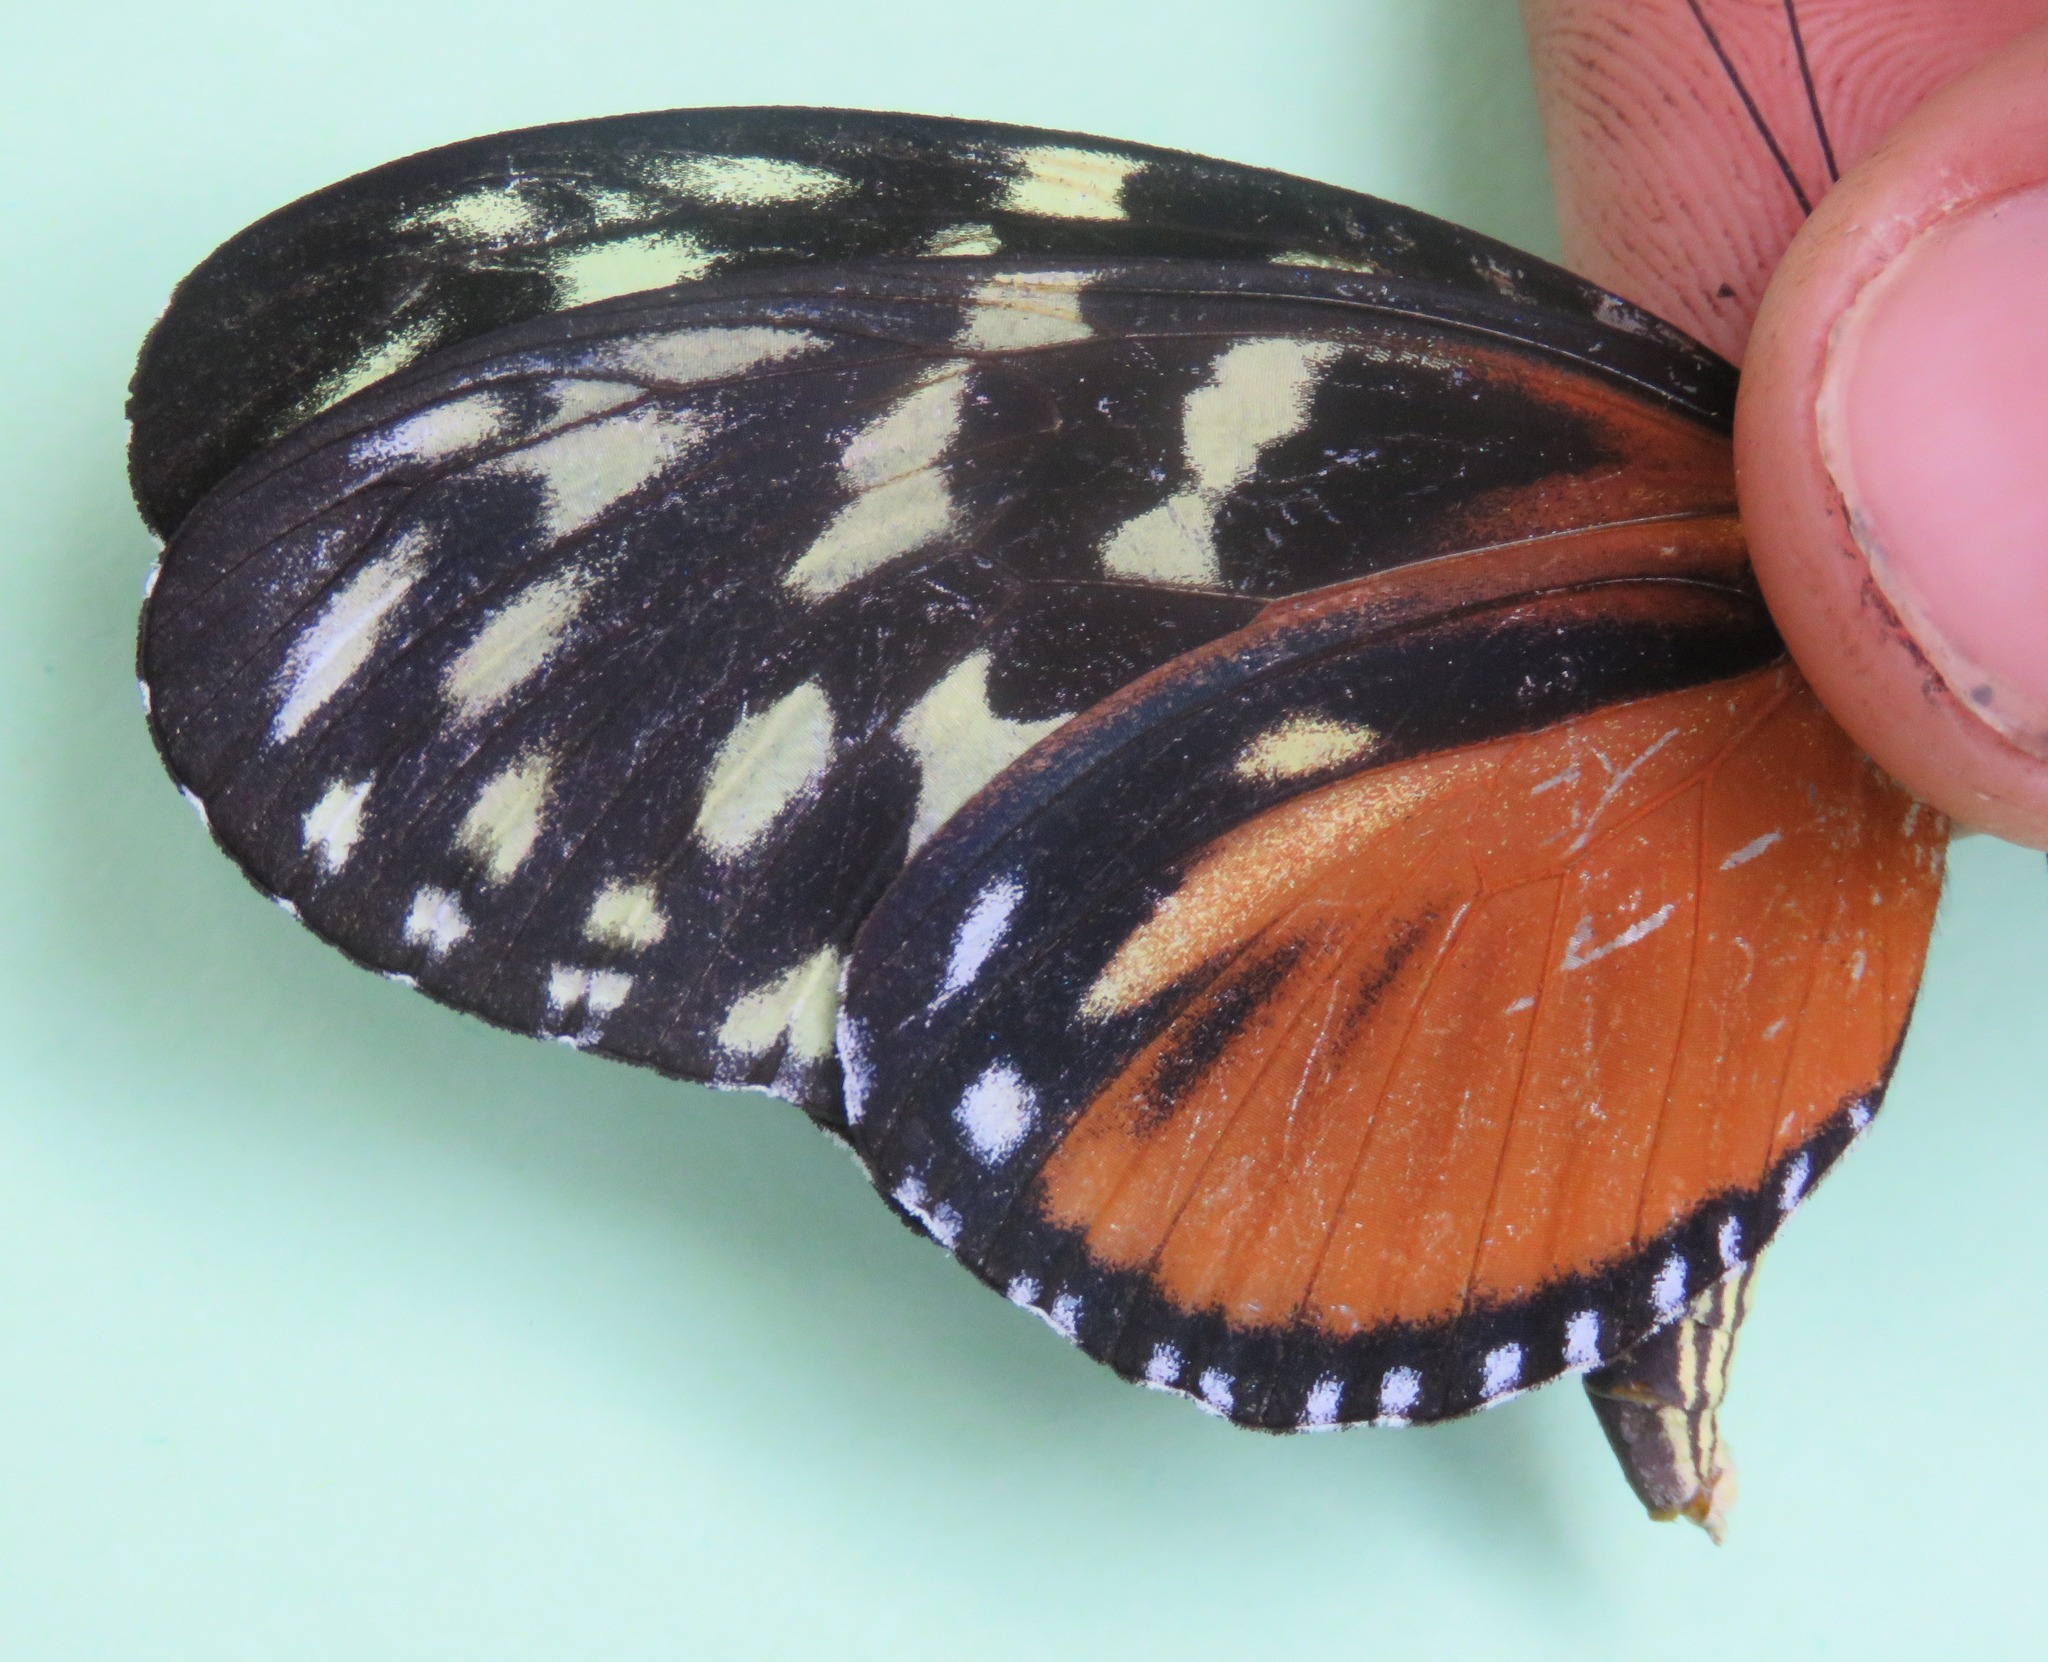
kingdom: Animalia
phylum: Arthropoda
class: Insecta
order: Lepidoptera
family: Nymphalidae
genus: Heliconius
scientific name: Heliconius hecale
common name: Tiger longwing
